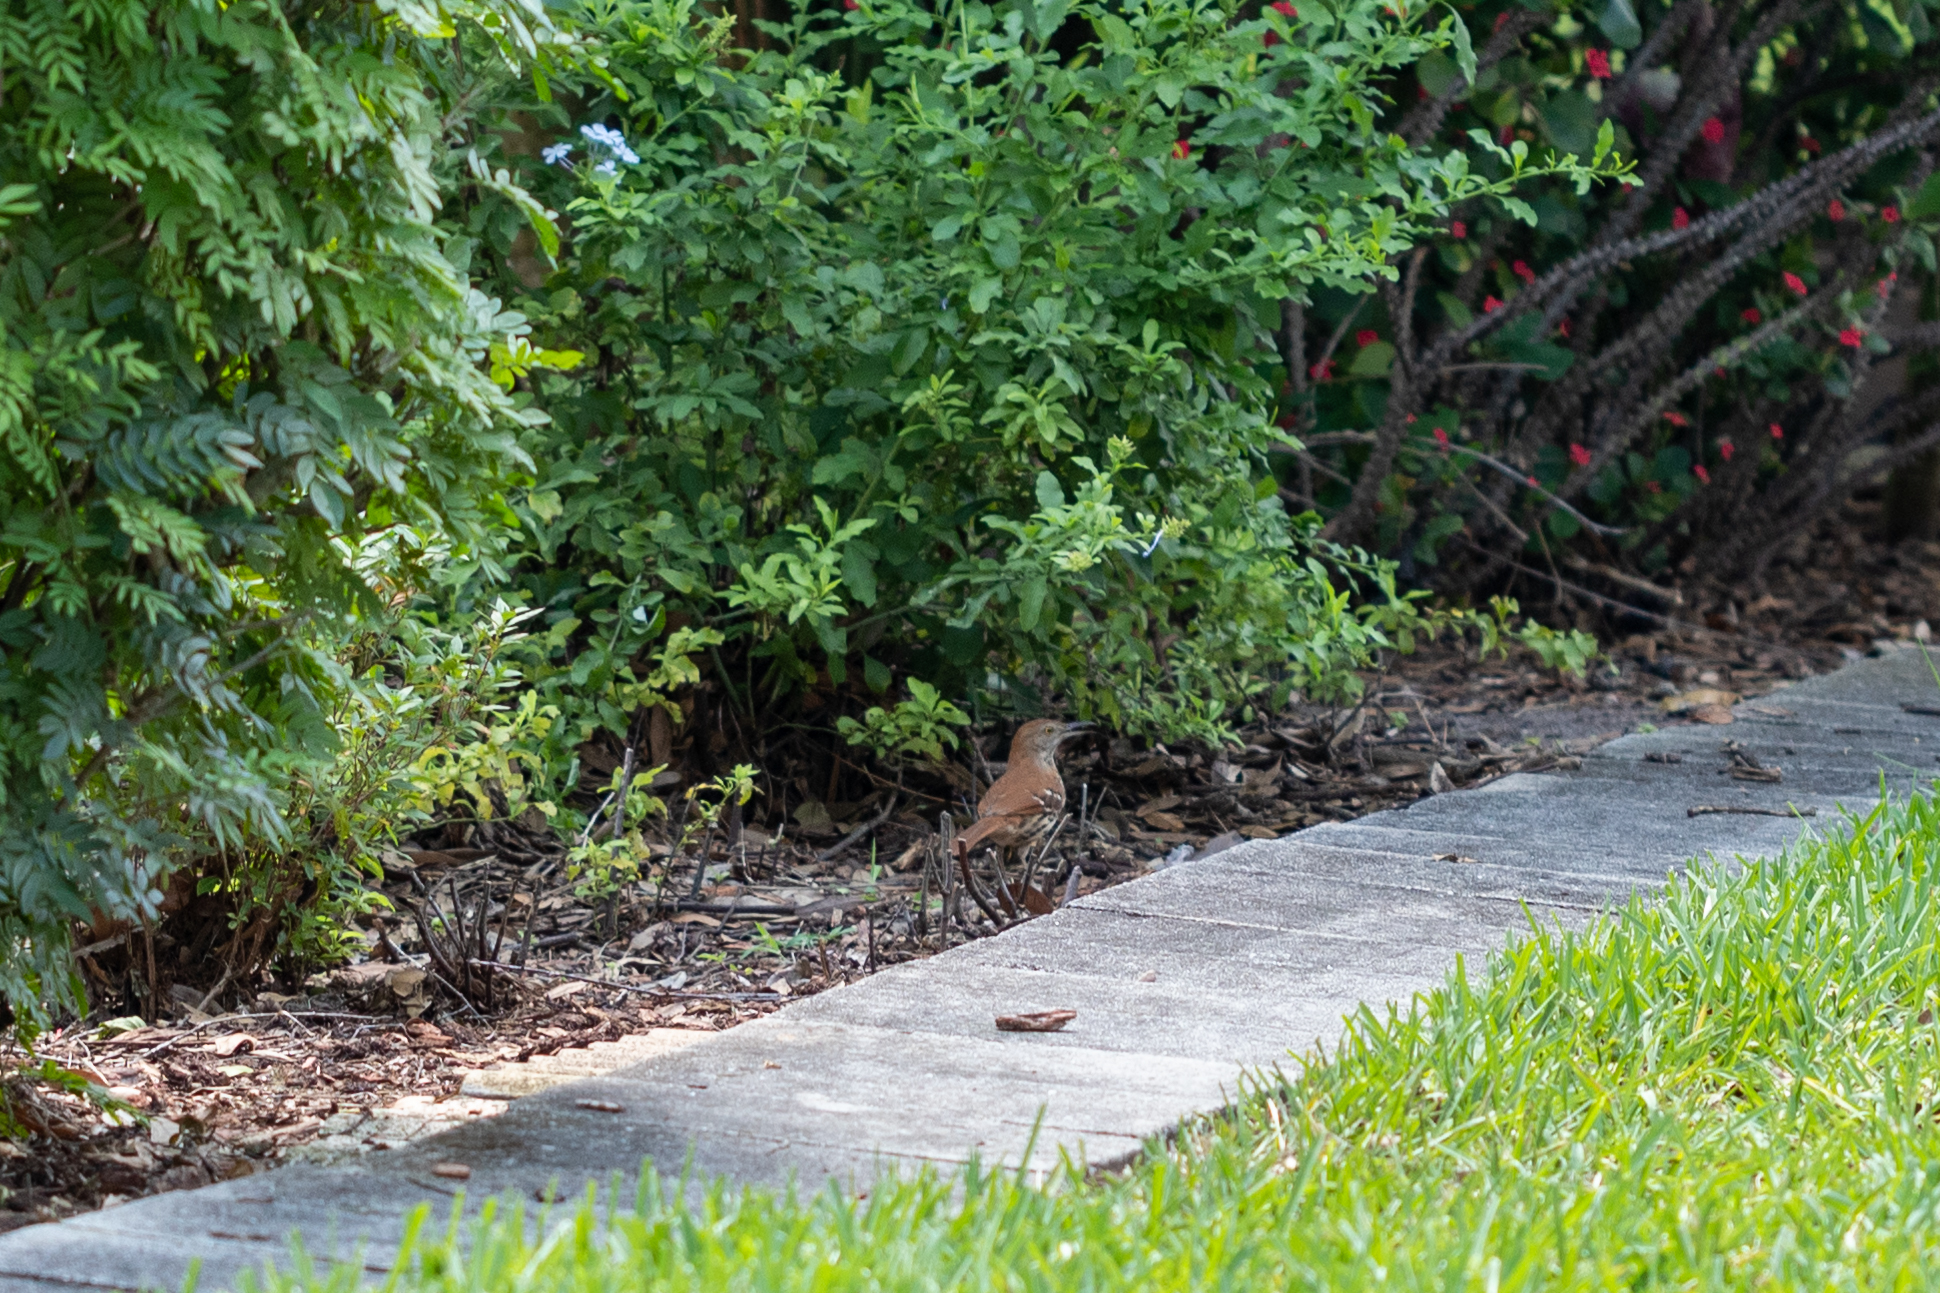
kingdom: Animalia
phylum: Chordata
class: Aves
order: Passeriformes
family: Mimidae
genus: Toxostoma
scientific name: Toxostoma rufum
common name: Brown thrasher
